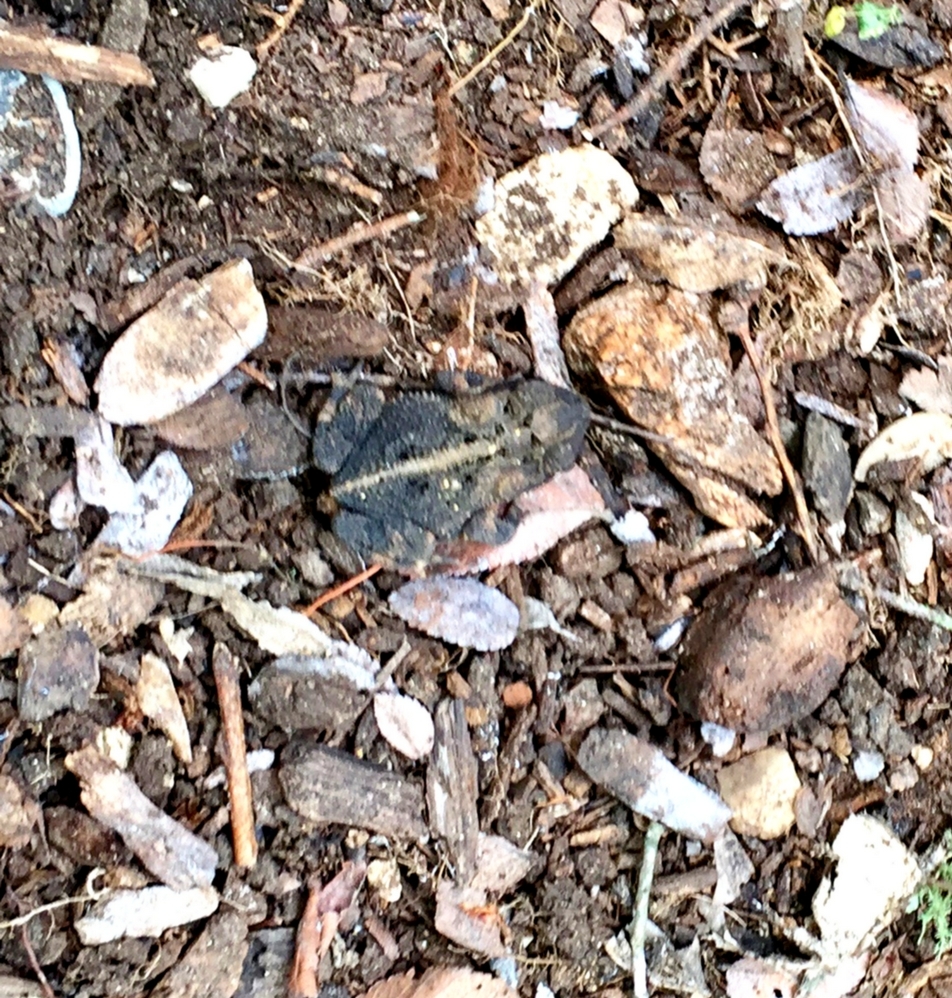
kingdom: Animalia
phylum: Chordata
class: Amphibia
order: Anura
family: Bufonidae
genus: Incilius
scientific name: Incilius nebulifer
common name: Gulf coast toad
